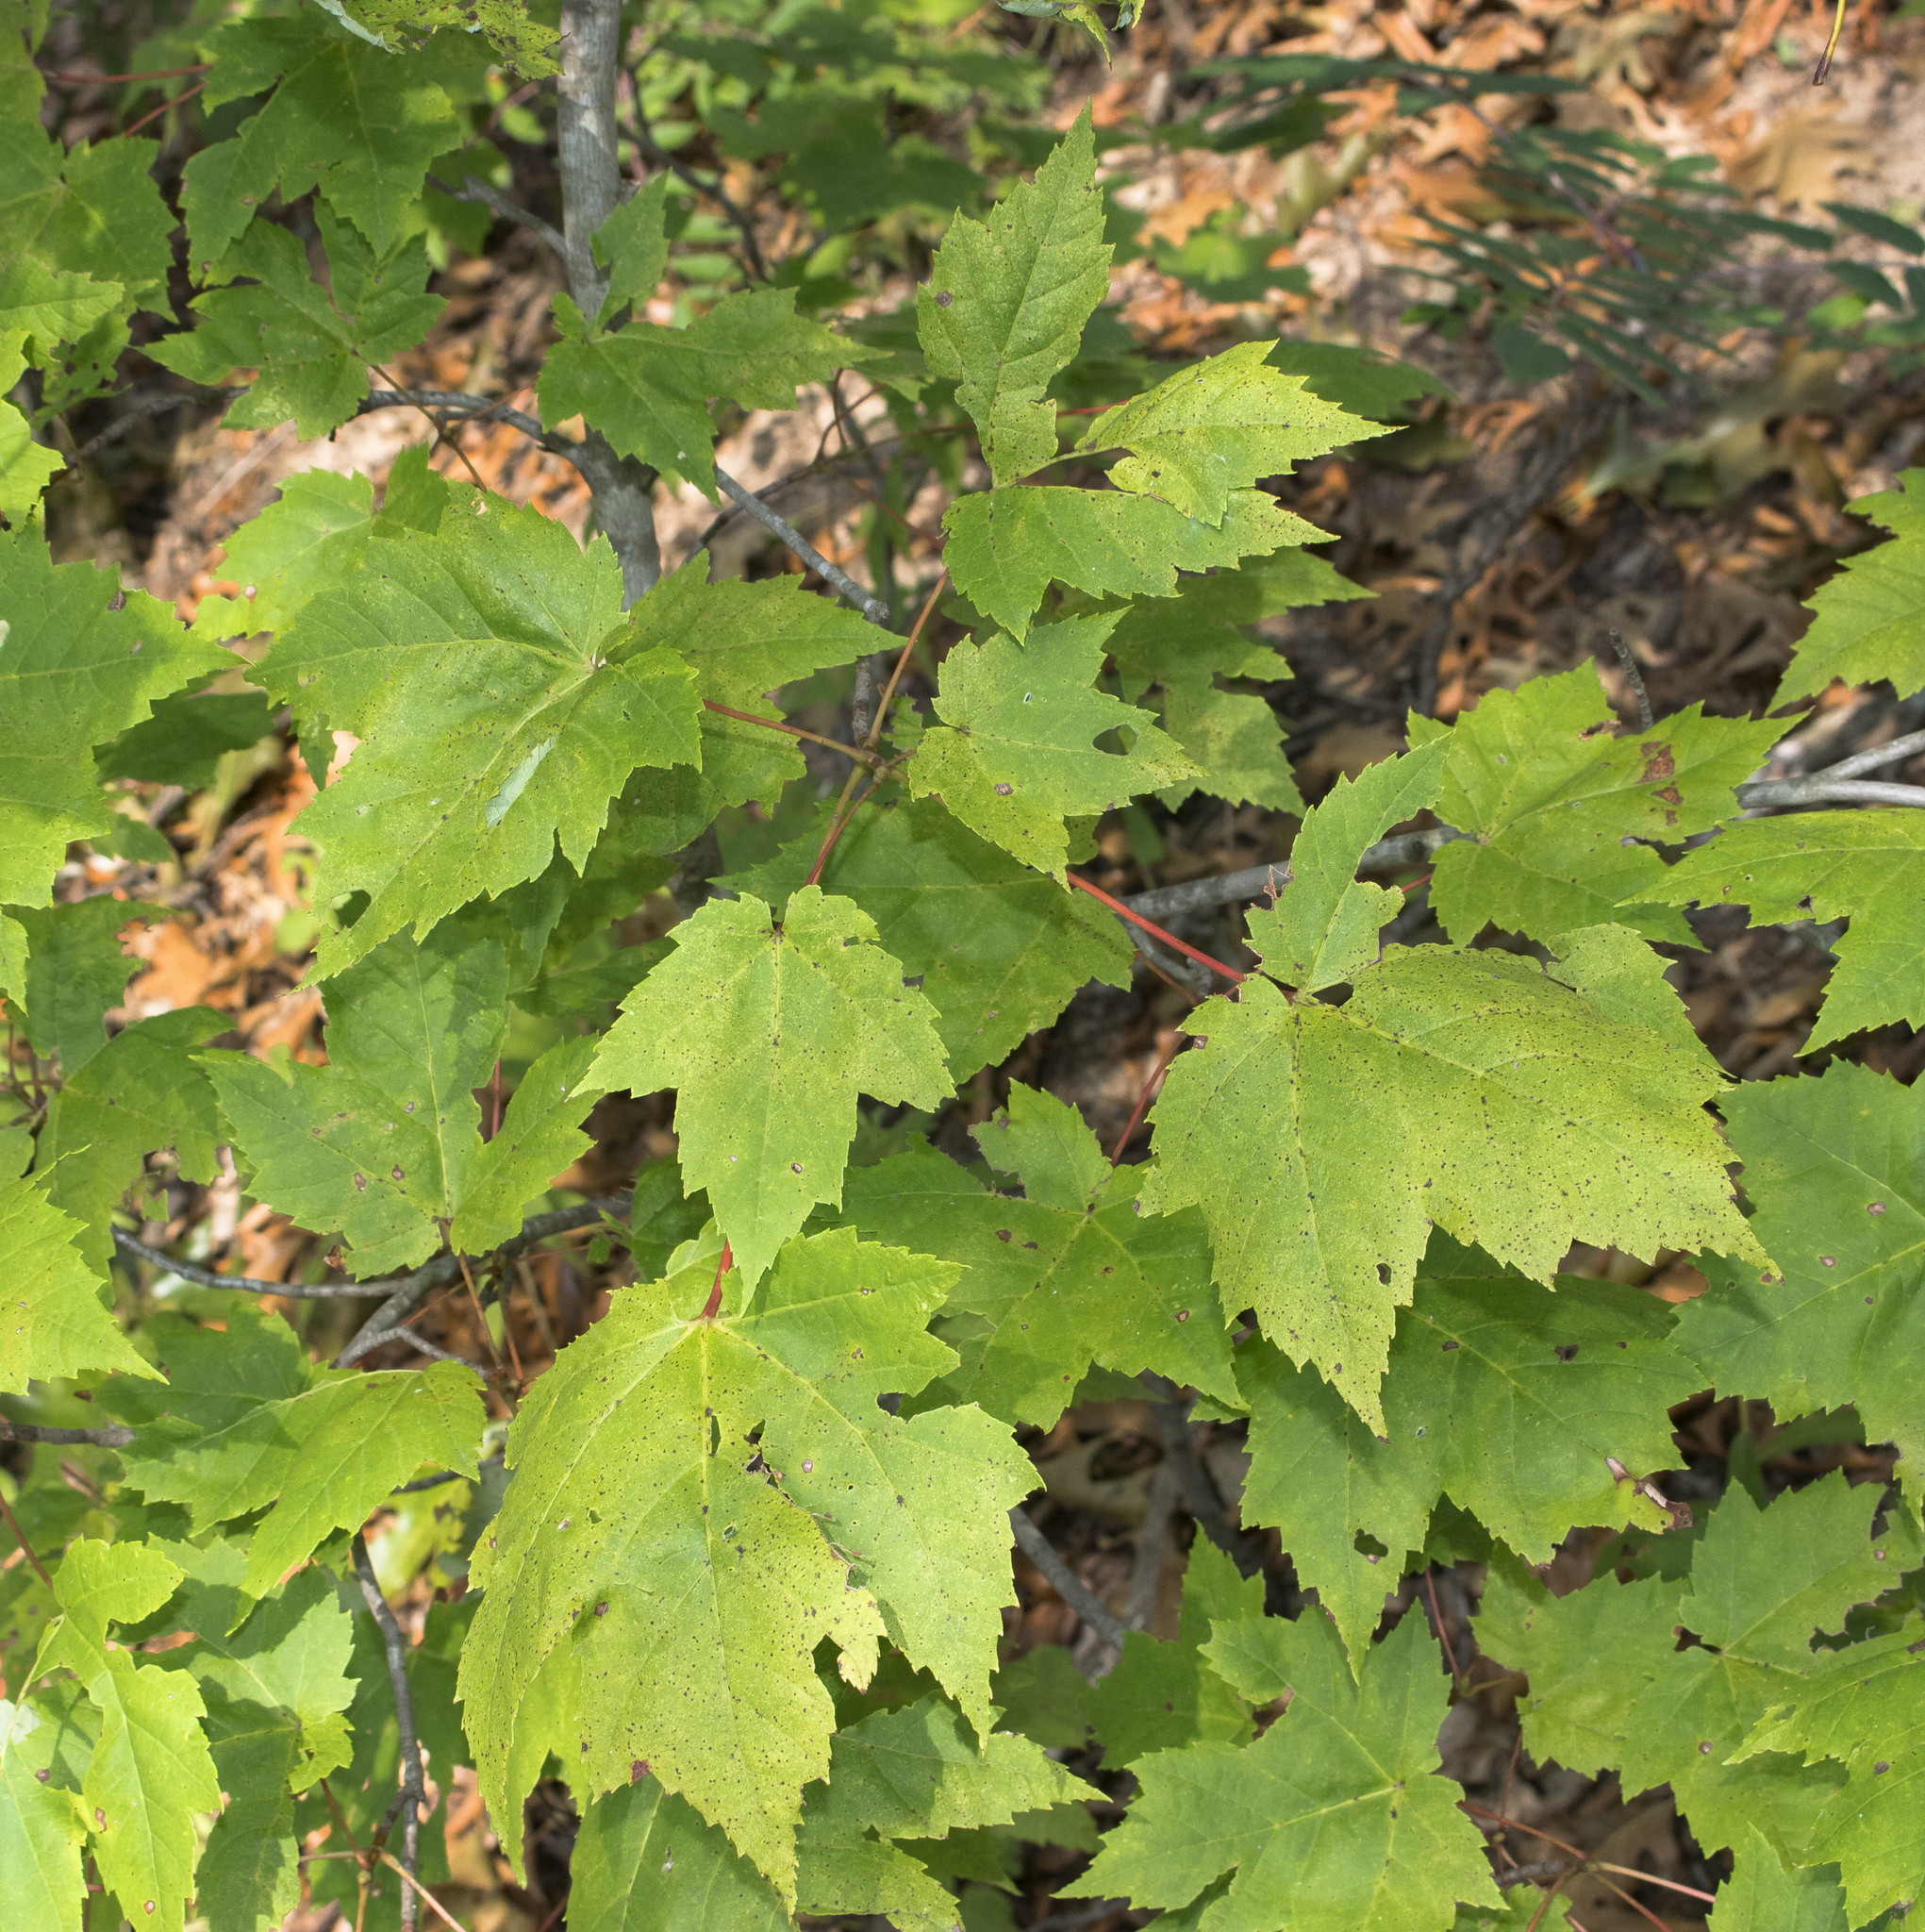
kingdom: Plantae
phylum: Tracheophyta
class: Magnoliopsida
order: Sapindales
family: Sapindaceae
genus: Acer
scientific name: Acer rubrum
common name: Red maple
